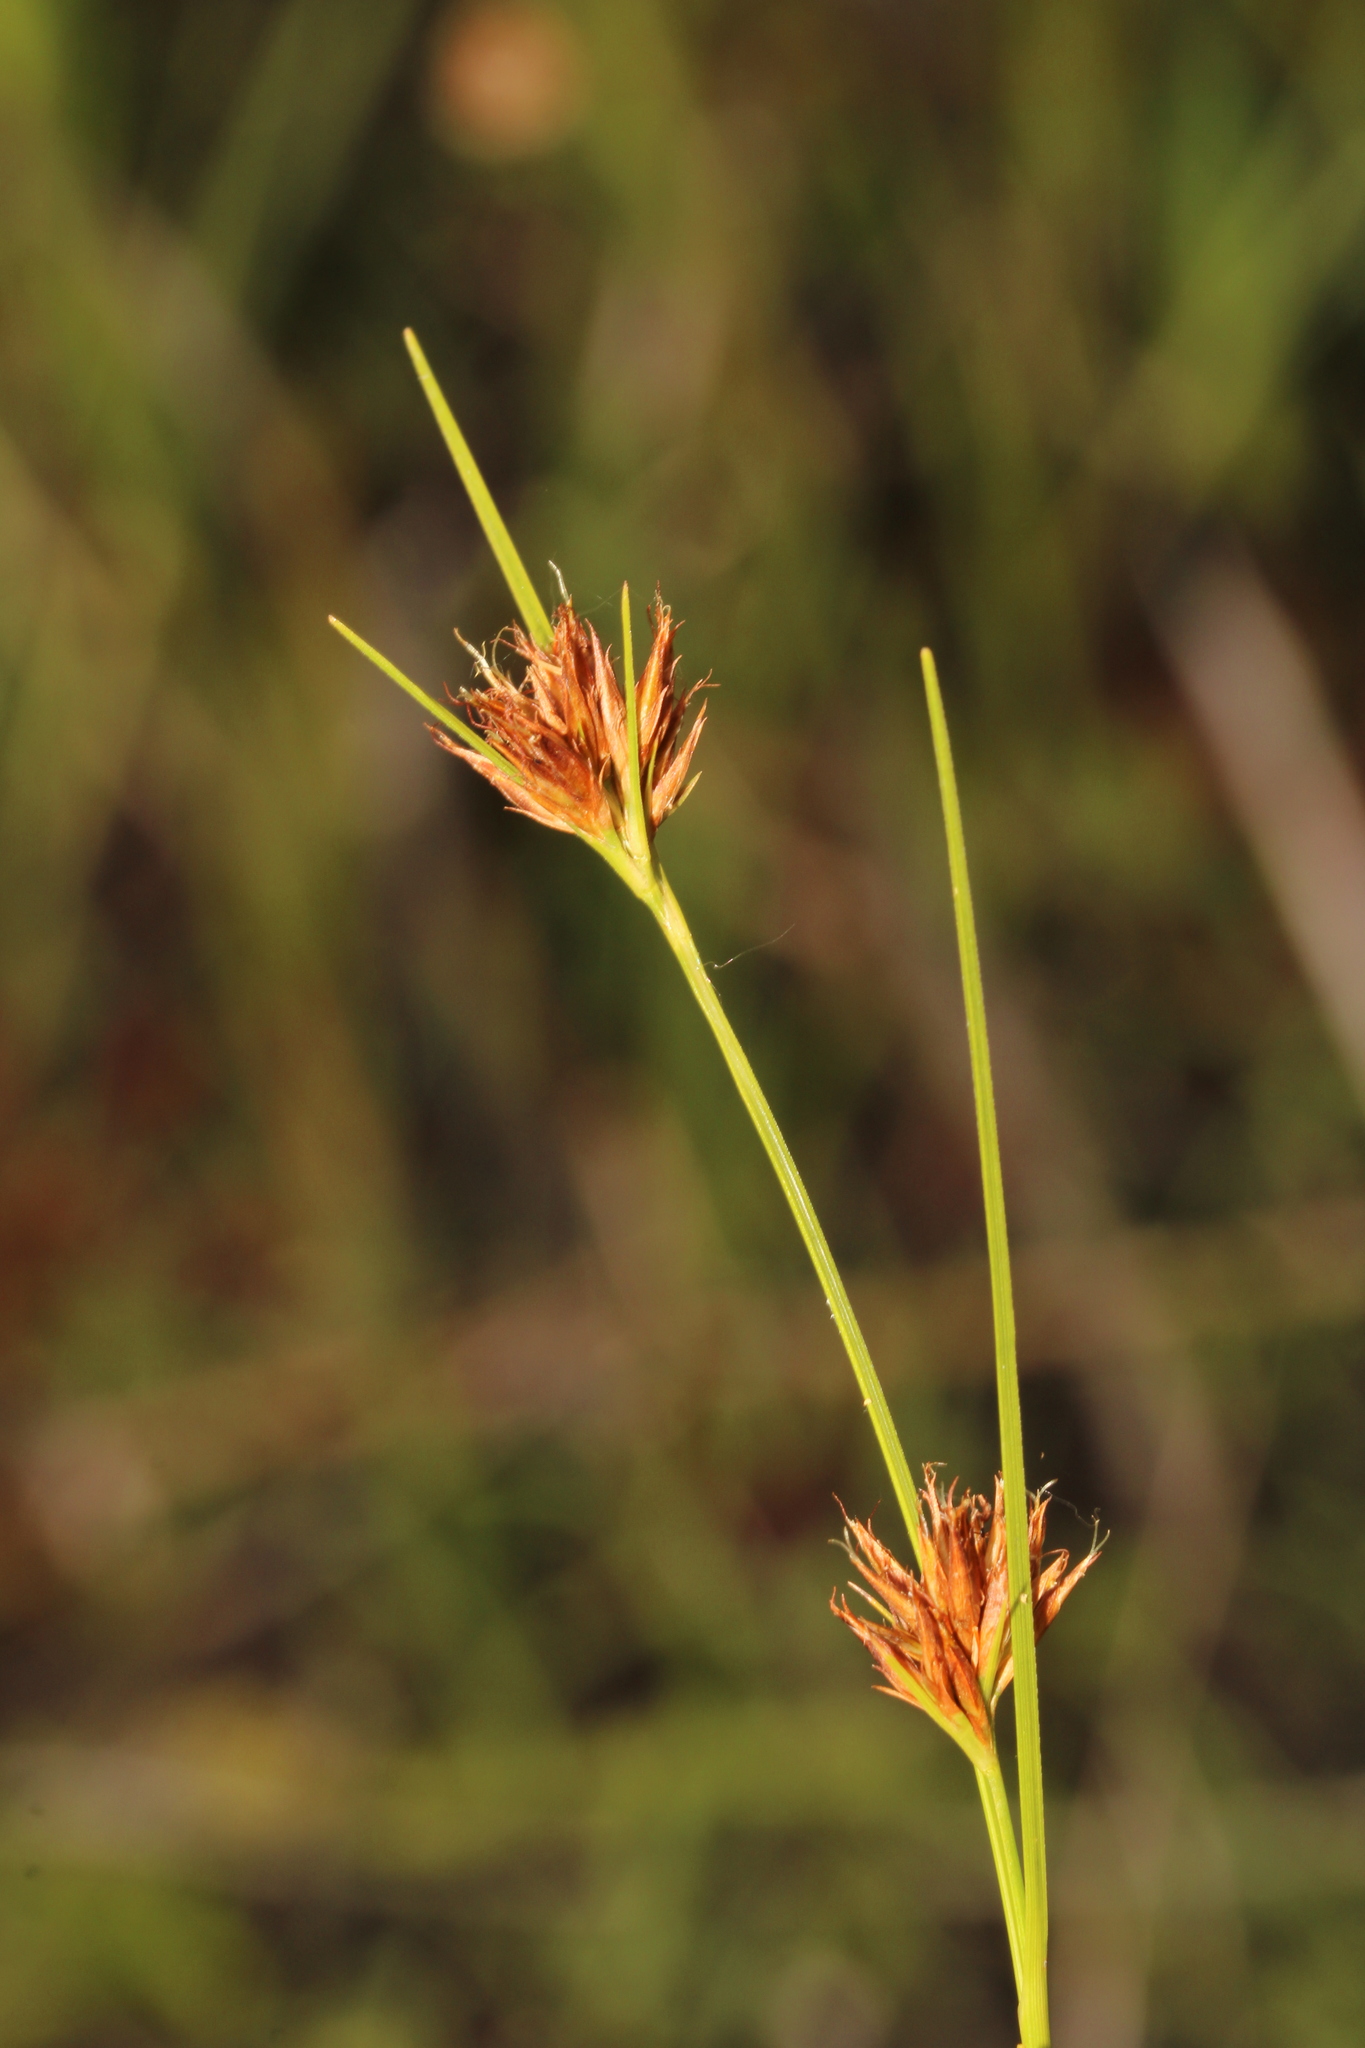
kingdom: Plantae
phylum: Tracheophyta
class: Liliopsida
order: Poales
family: Cyperaceae
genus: Rhynchospora
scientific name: Rhynchospora harperi
